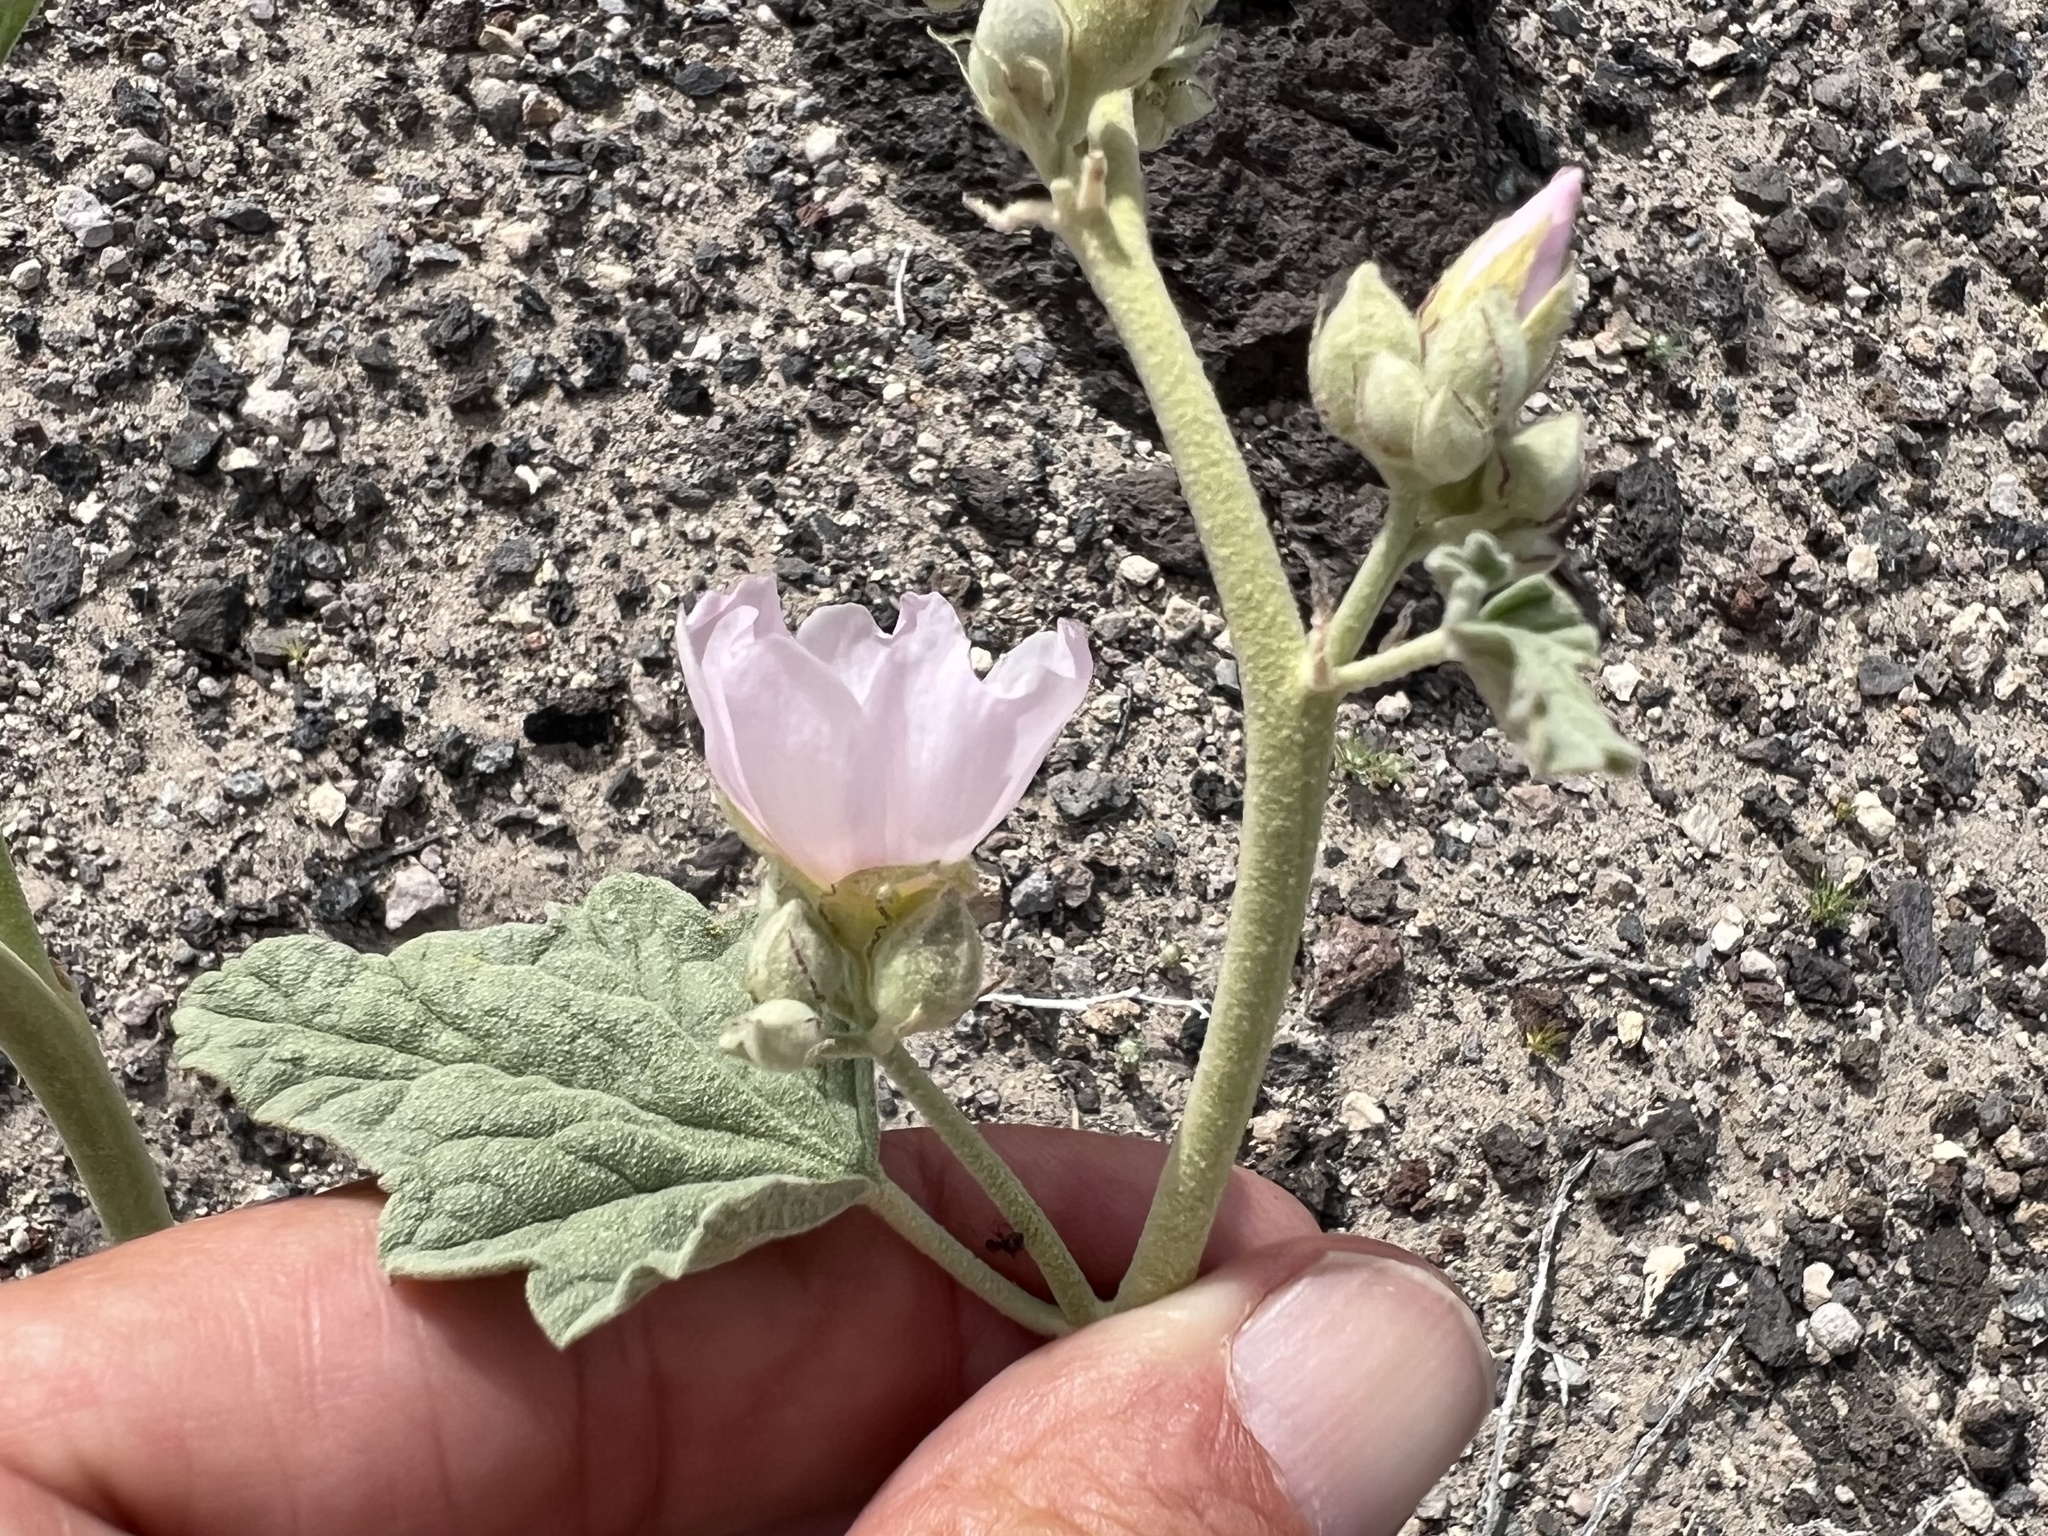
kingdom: Plantae
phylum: Tracheophyta
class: Magnoliopsida
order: Malvales
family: Malvaceae
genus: Sphaeralcea
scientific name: Sphaeralcea ambigua
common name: Apricot globe-mallow
